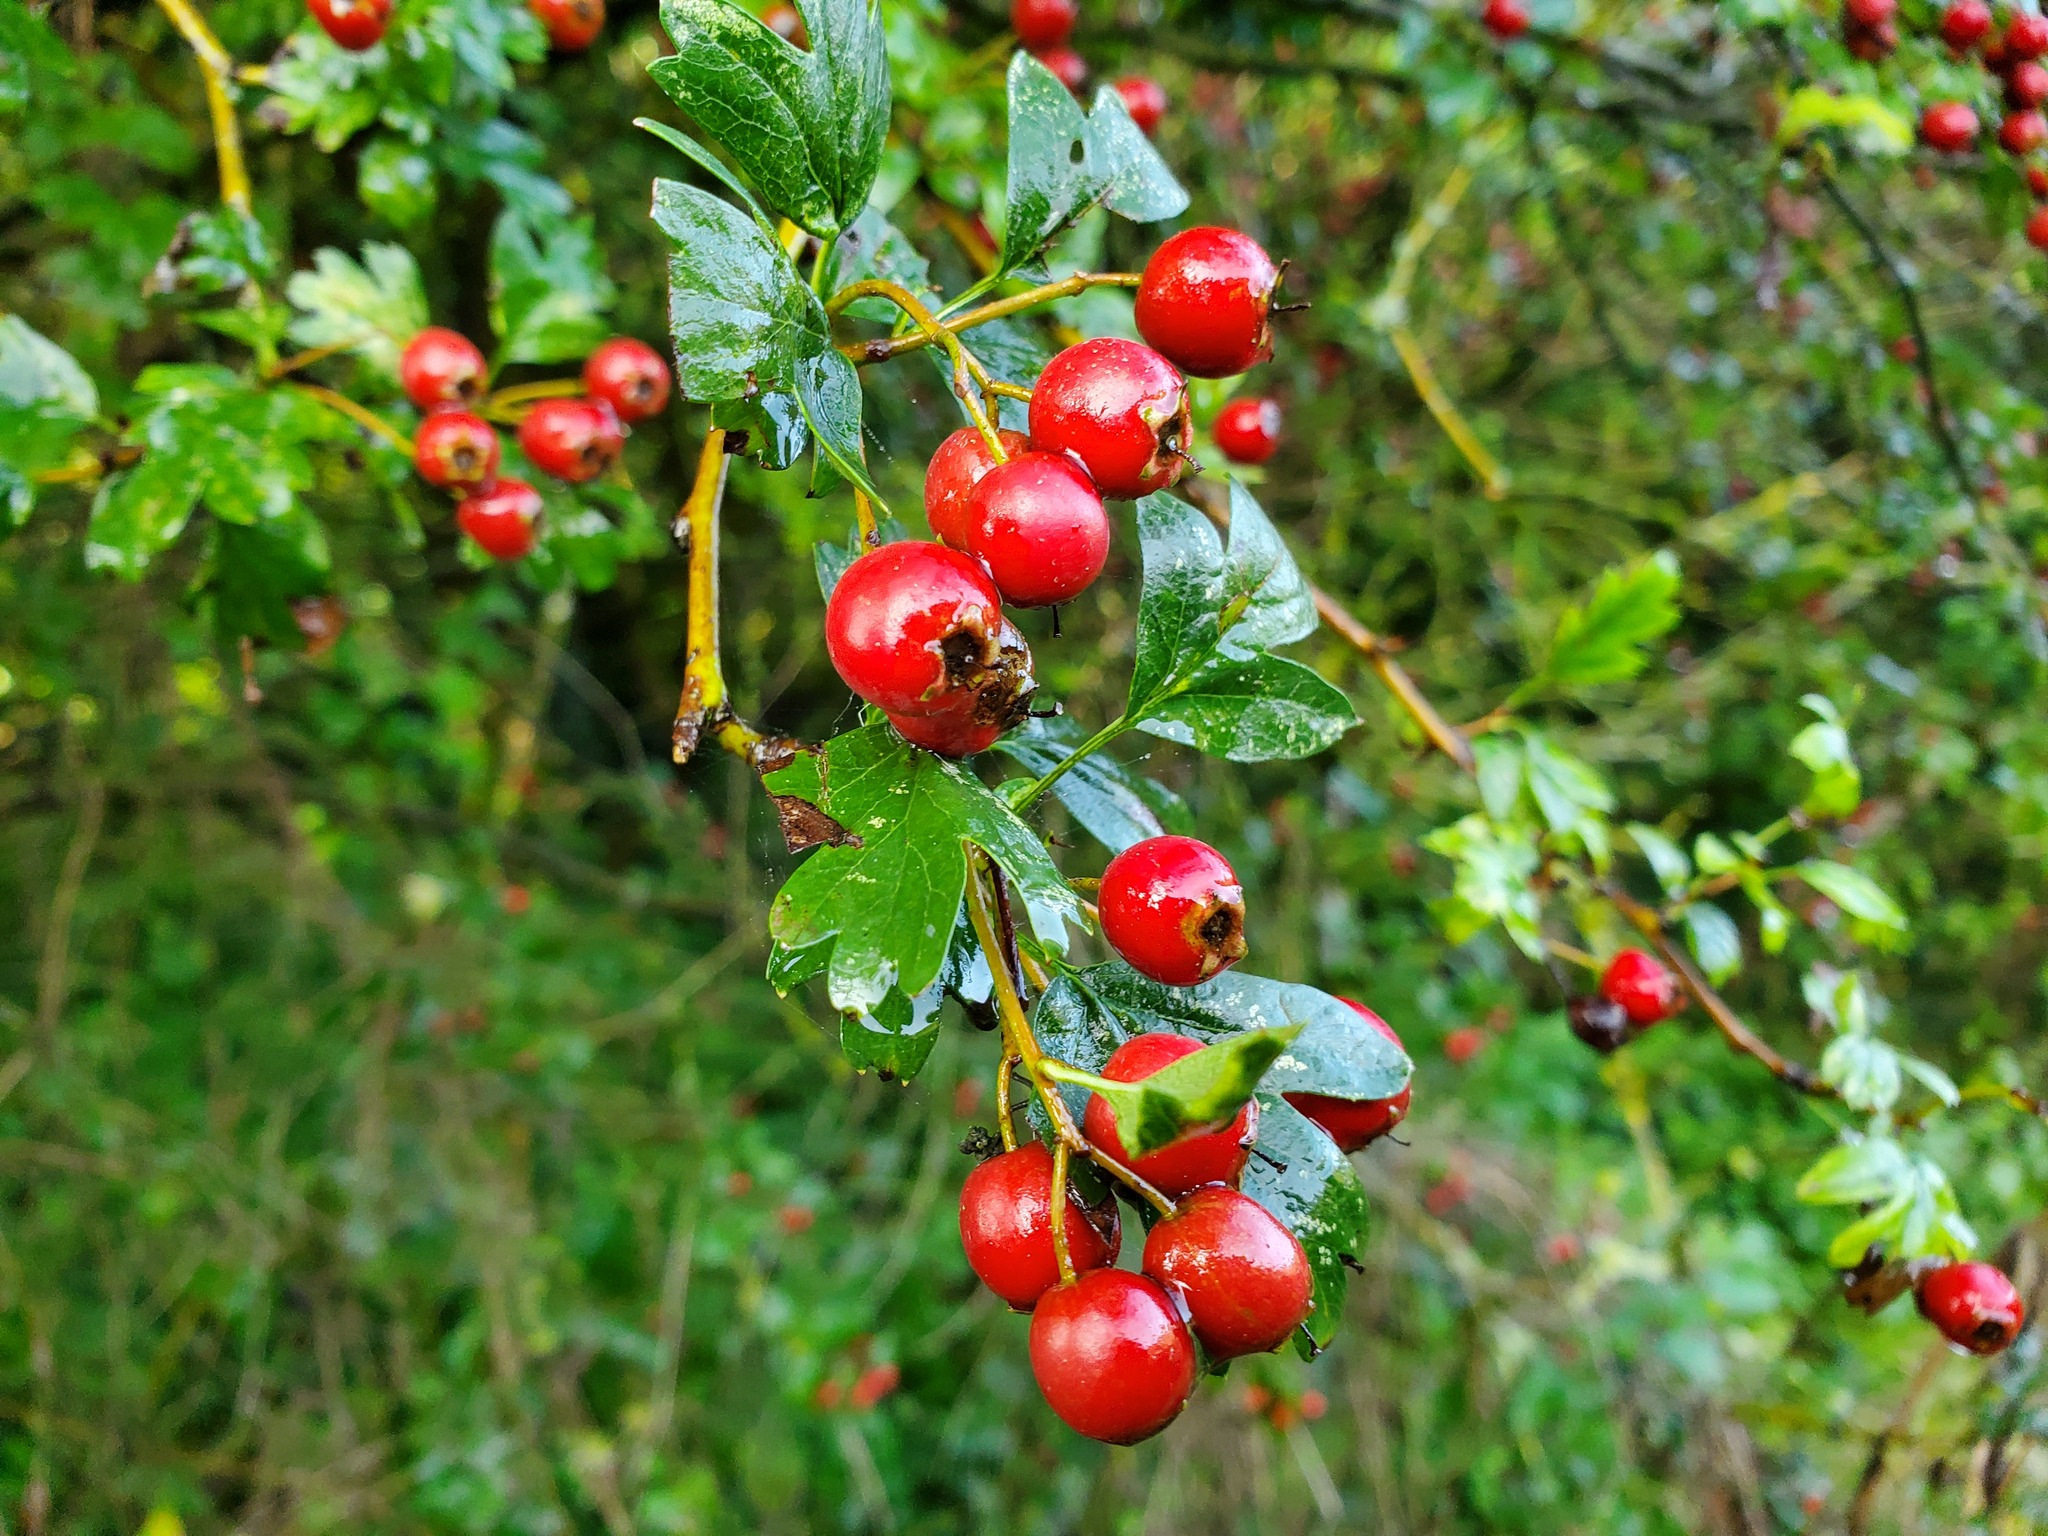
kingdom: Plantae
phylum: Tracheophyta
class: Magnoliopsida
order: Rosales
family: Rosaceae
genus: Crataegus
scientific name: Crataegus monogyna
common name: Hawthorn
